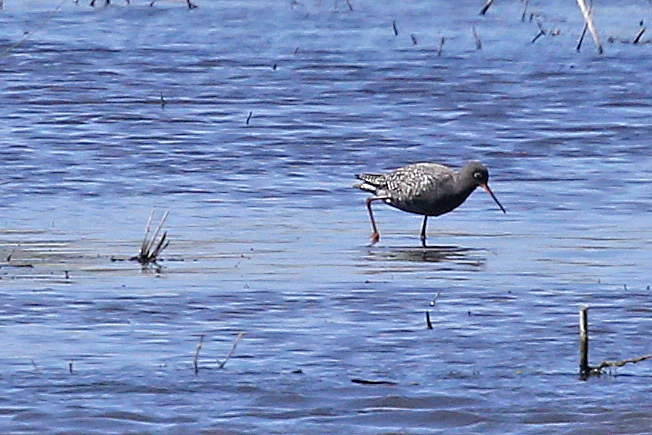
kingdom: Animalia
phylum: Chordata
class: Aves
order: Charadriiformes
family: Scolopacidae
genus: Tringa
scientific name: Tringa erythropus
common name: Spotted redshank
